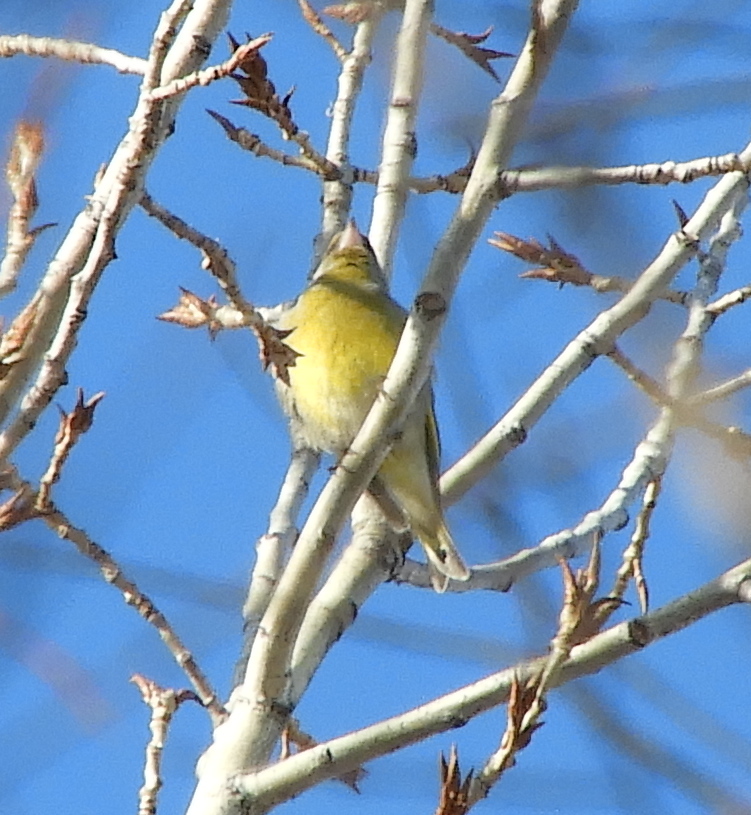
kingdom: Plantae
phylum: Tracheophyta
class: Liliopsida
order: Poales
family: Poaceae
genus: Chloris
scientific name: Chloris chloris
